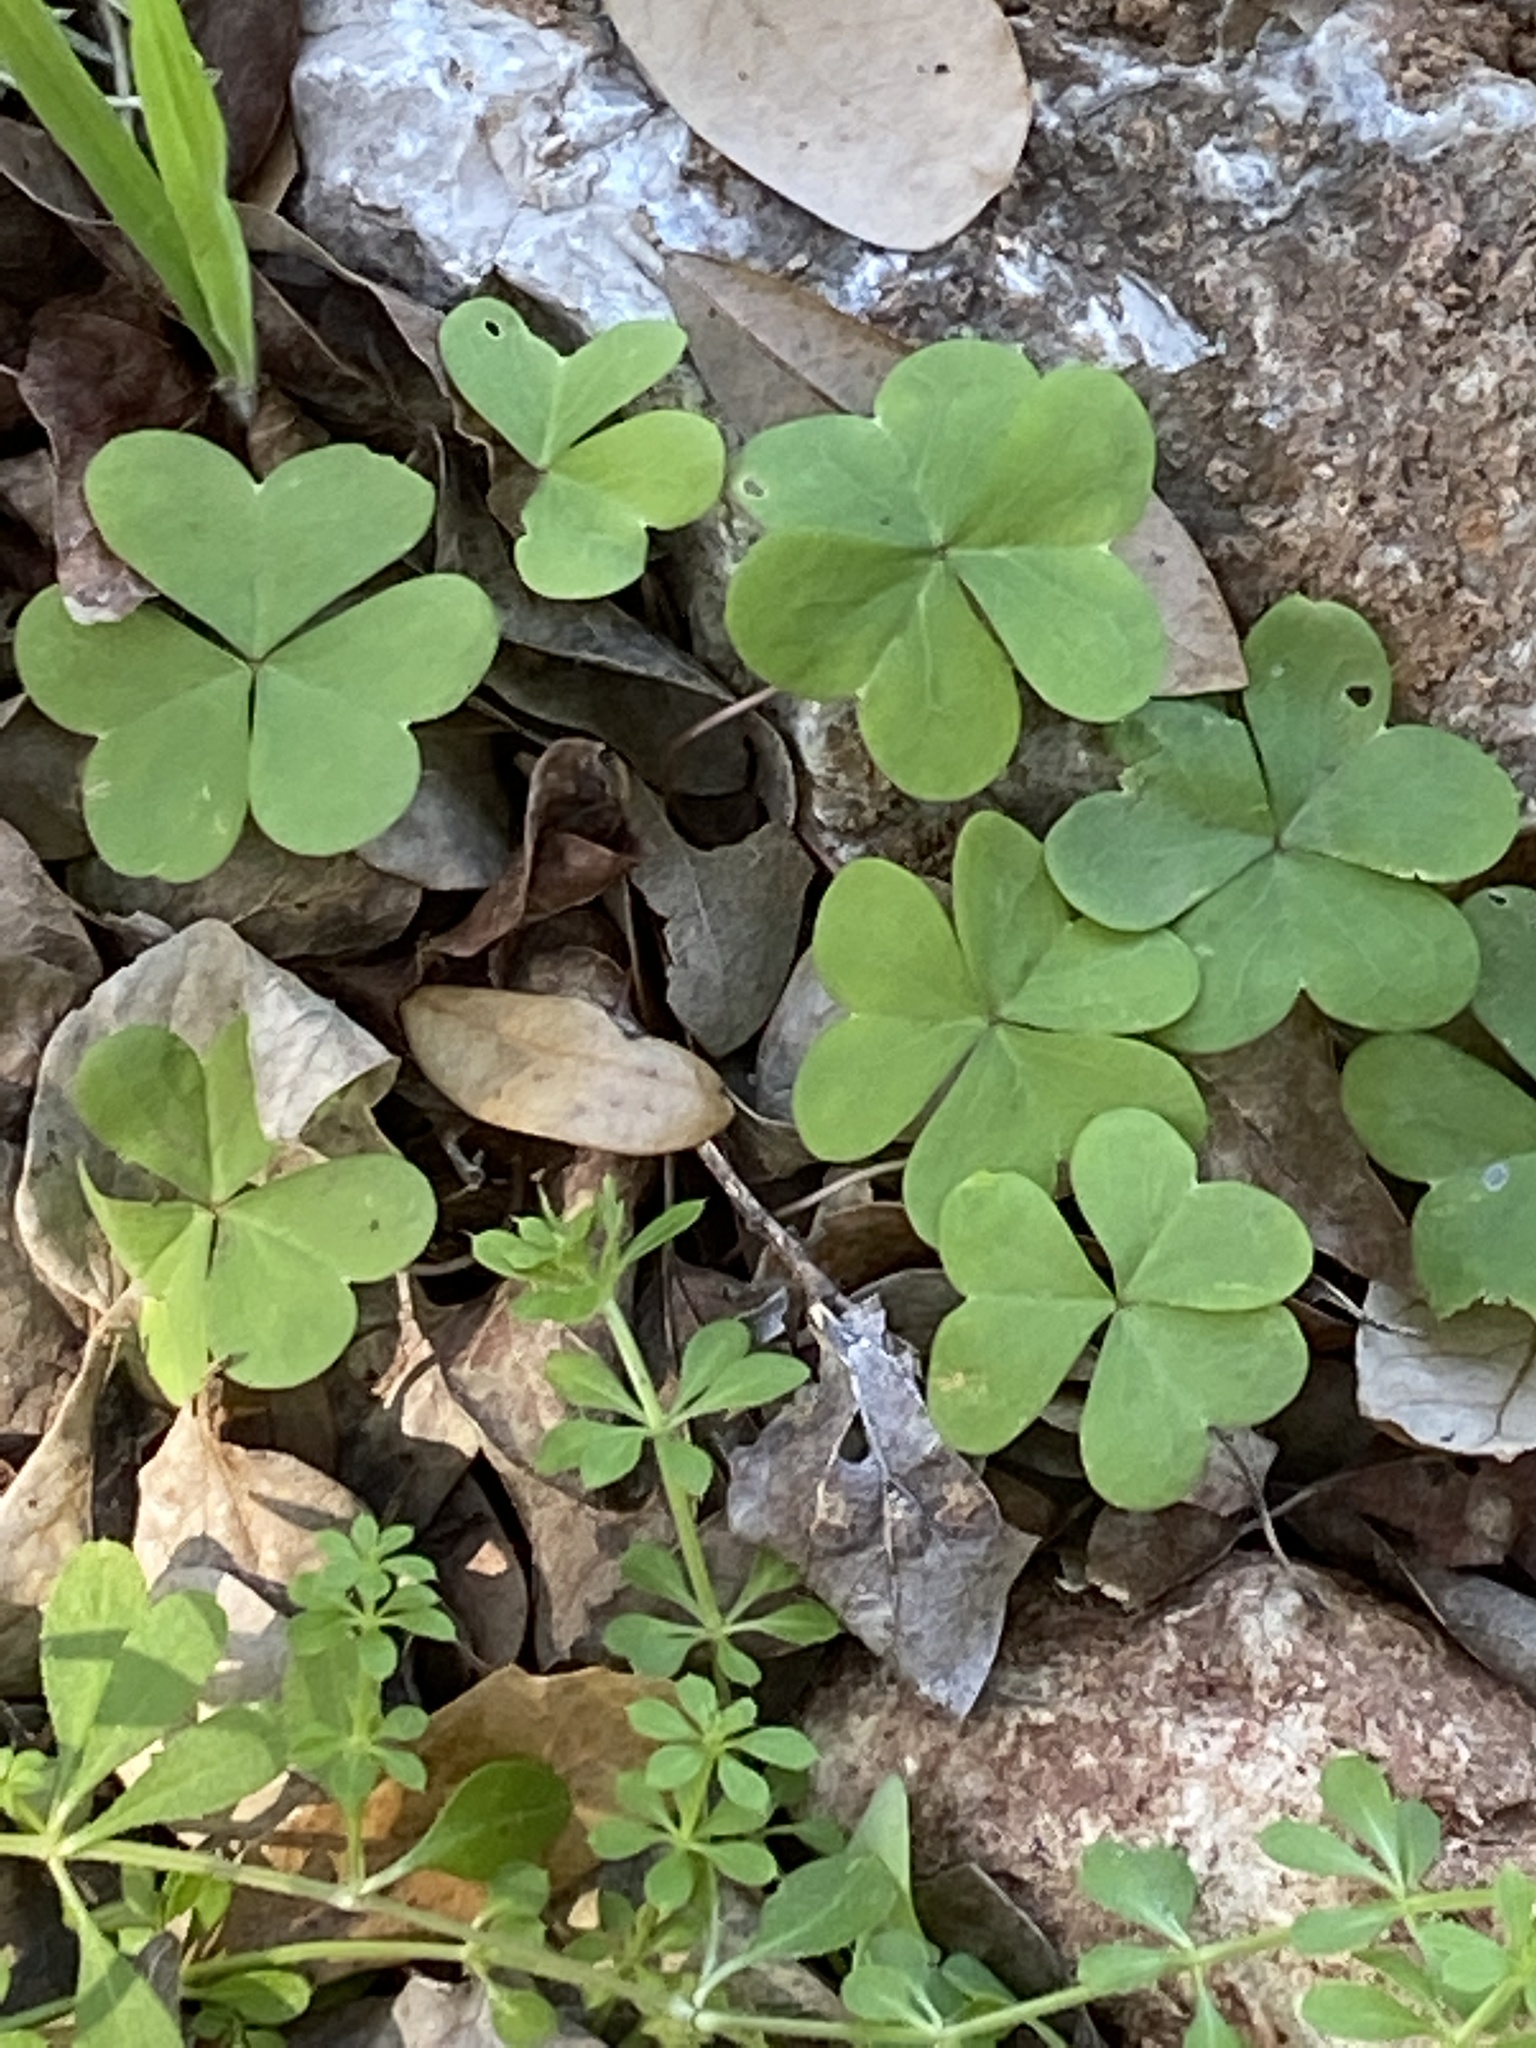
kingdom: Plantae
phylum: Tracheophyta
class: Magnoliopsida
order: Oxalidales
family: Oxalidaceae
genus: Oxalis
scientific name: Oxalis debilis
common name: Large-flowered pink-sorrel
